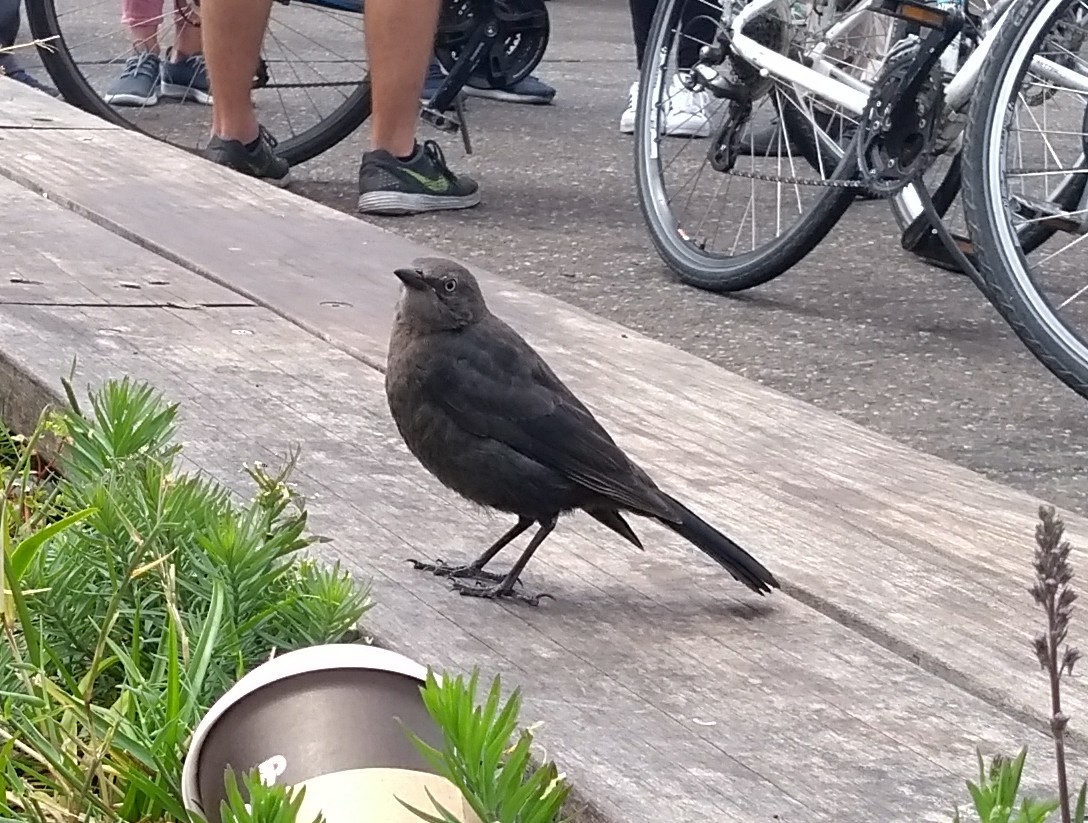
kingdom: Animalia
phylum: Chordata
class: Aves
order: Passeriformes
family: Icteridae
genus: Euphagus
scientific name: Euphagus cyanocephalus
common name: Brewer's blackbird
